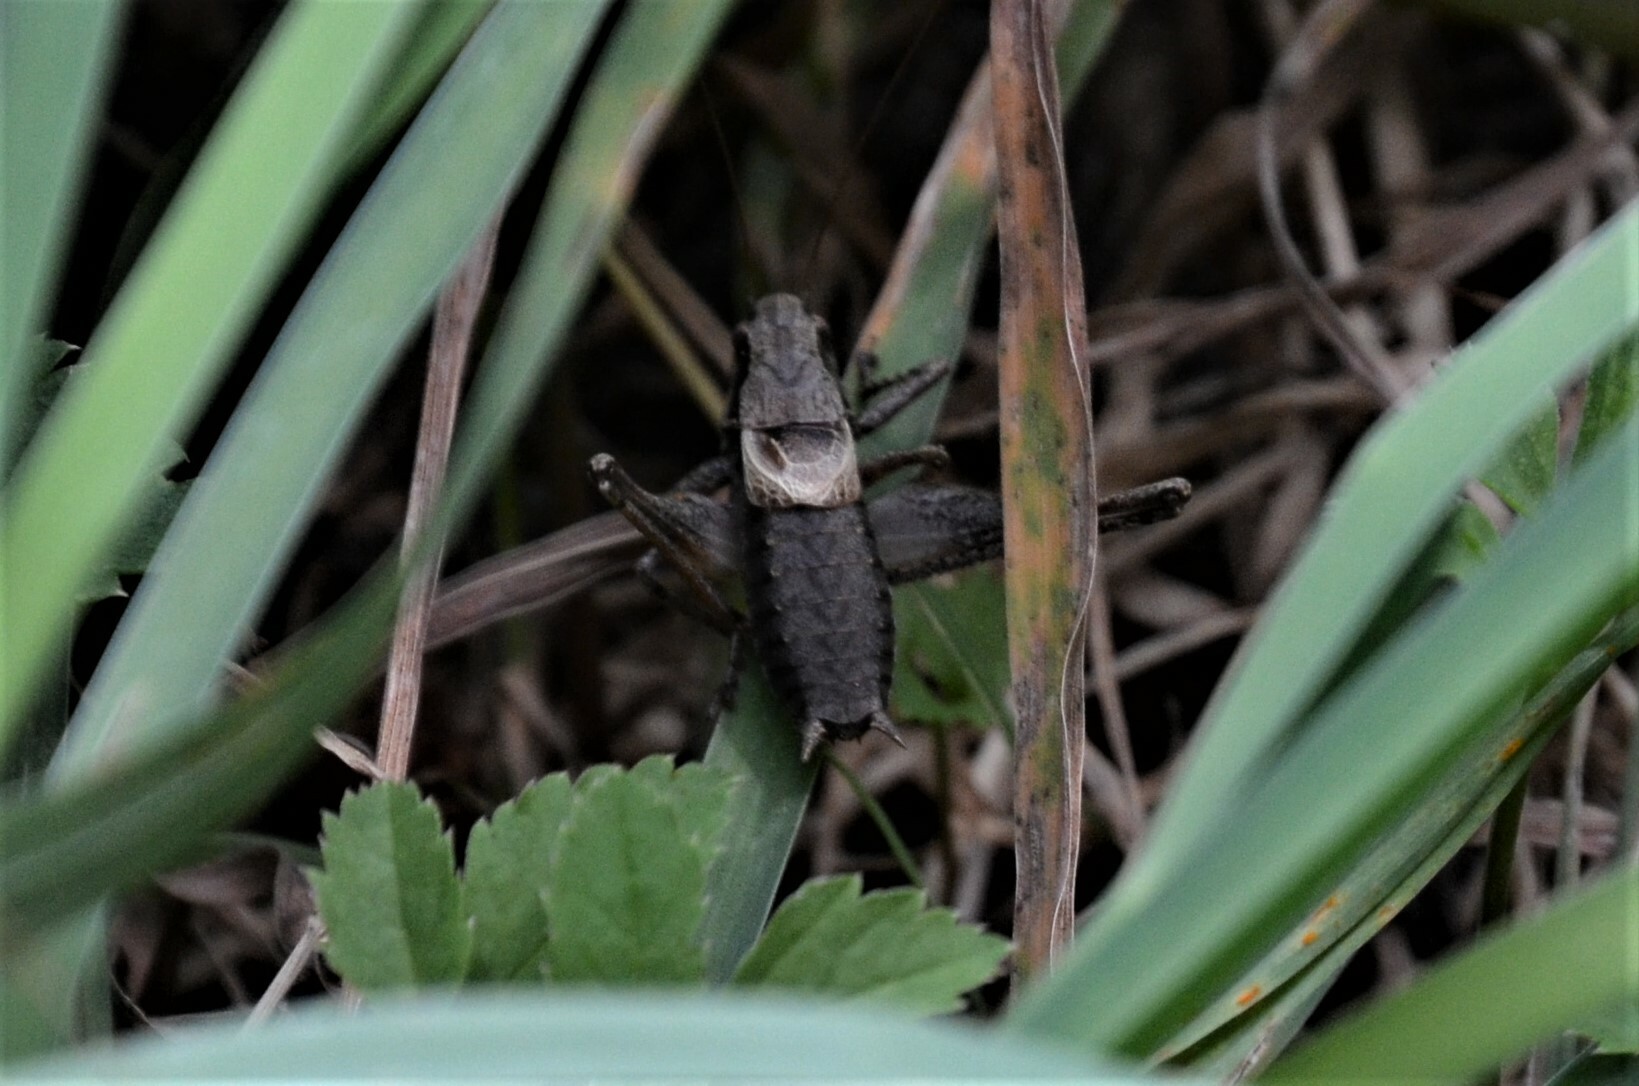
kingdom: Animalia
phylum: Arthropoda
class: Insecta
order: Orthoptera
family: Tettigoniidae
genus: Pholidoptera
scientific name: Pholidoptera griseoaptera
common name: Dark bush-cricket
